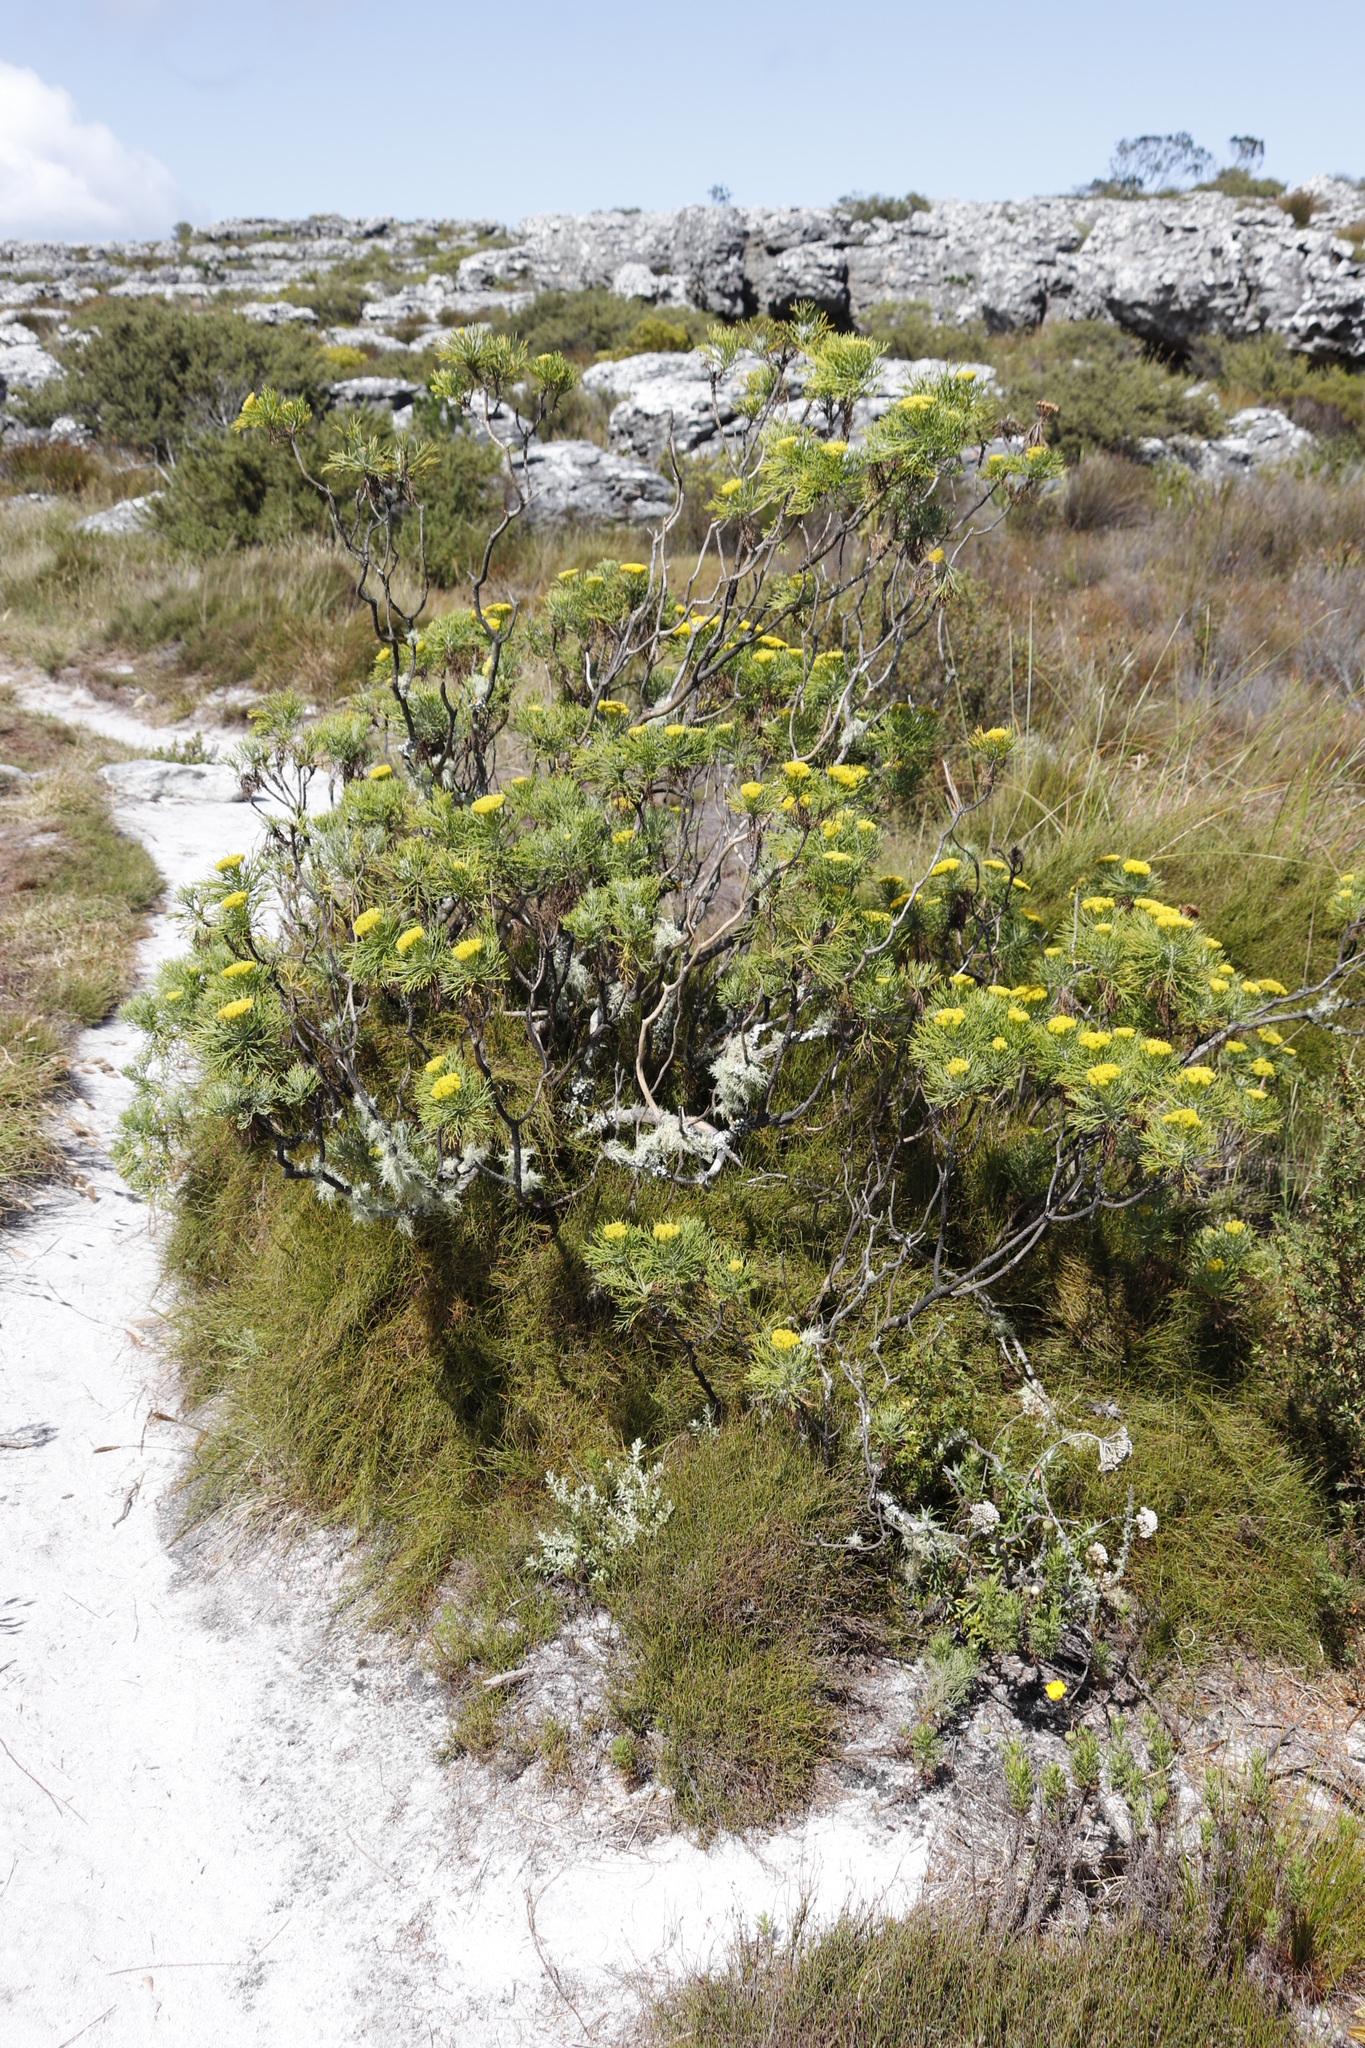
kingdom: Plantae
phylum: Tracheophyta
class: Magnoliopsida
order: Asterales
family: Asteraceae
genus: Hymenolepis
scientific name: Hymenolepis crithmifolia
